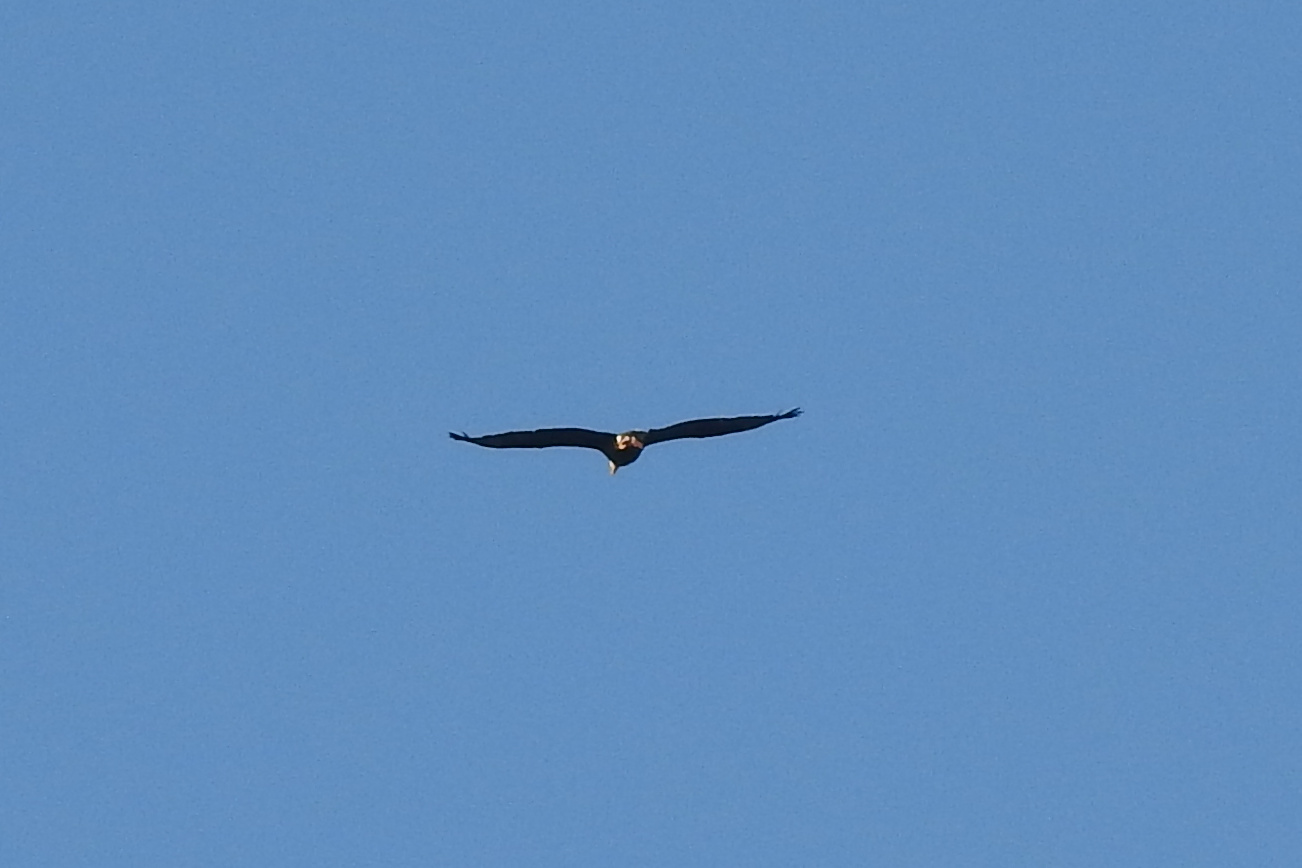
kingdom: Animalia
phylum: Chordata
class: Aves
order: Accipitriformes
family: Accipitridae
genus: Haliaeetus
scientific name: Haliaeetus leucocephalus
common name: Bald eagle
